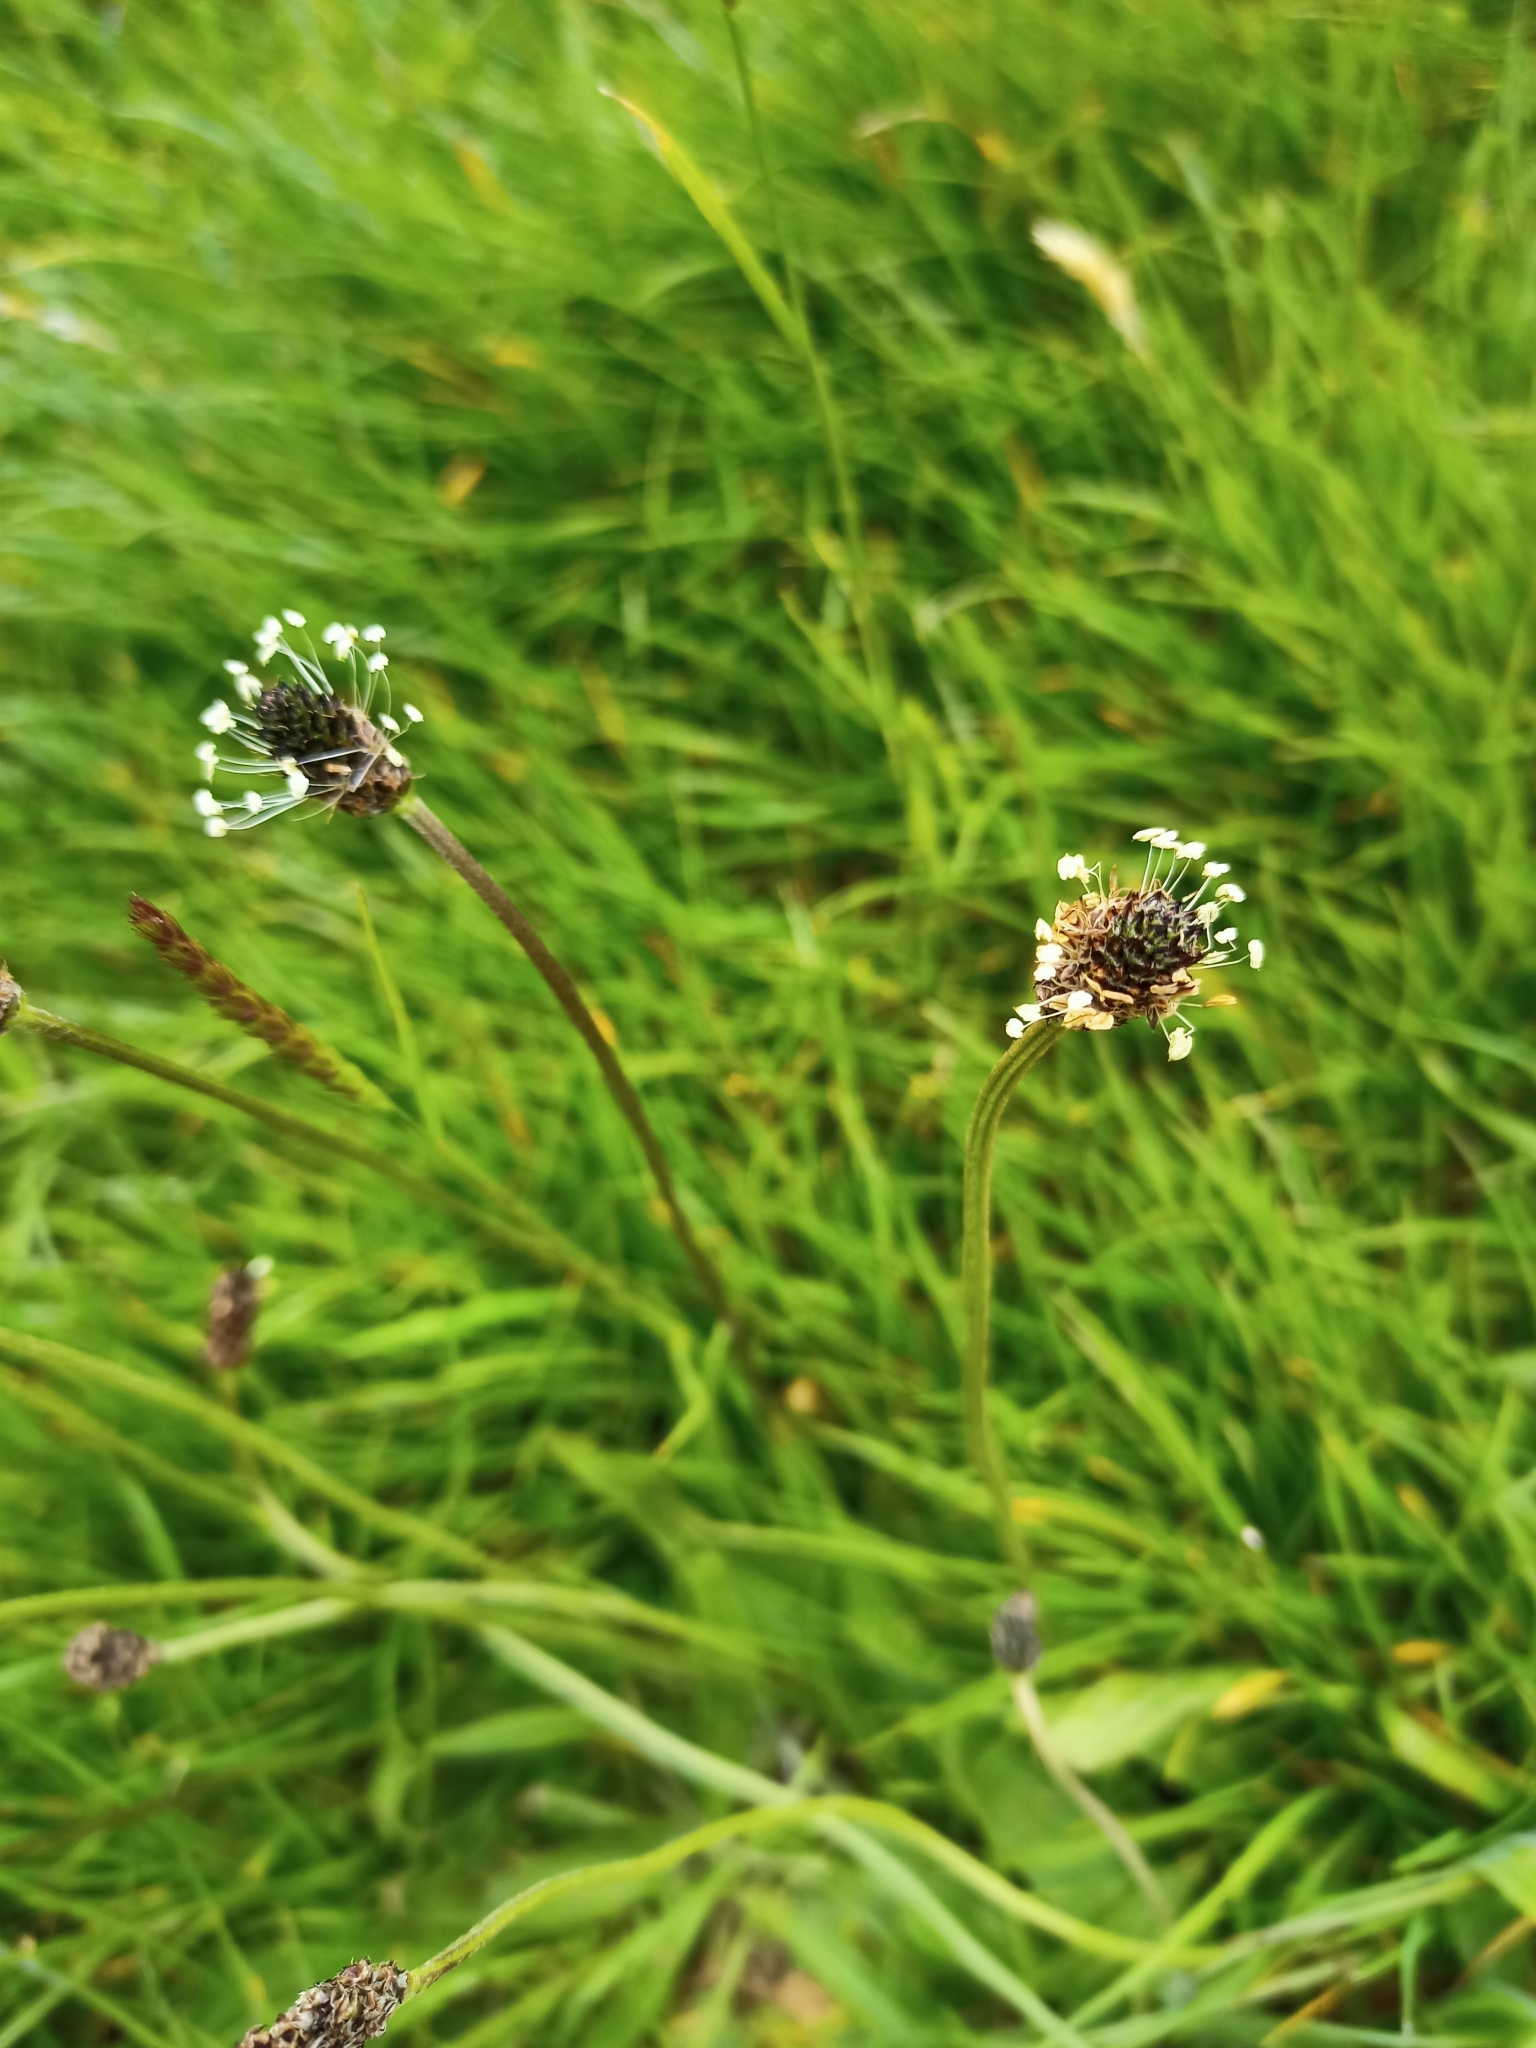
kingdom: Plantae
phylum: Tracheophyta
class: Magnoliopsida
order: Lamiales
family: Plantaginaceae
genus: Plantago
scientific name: Plantago lanceolata
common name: Ribwort plantain
